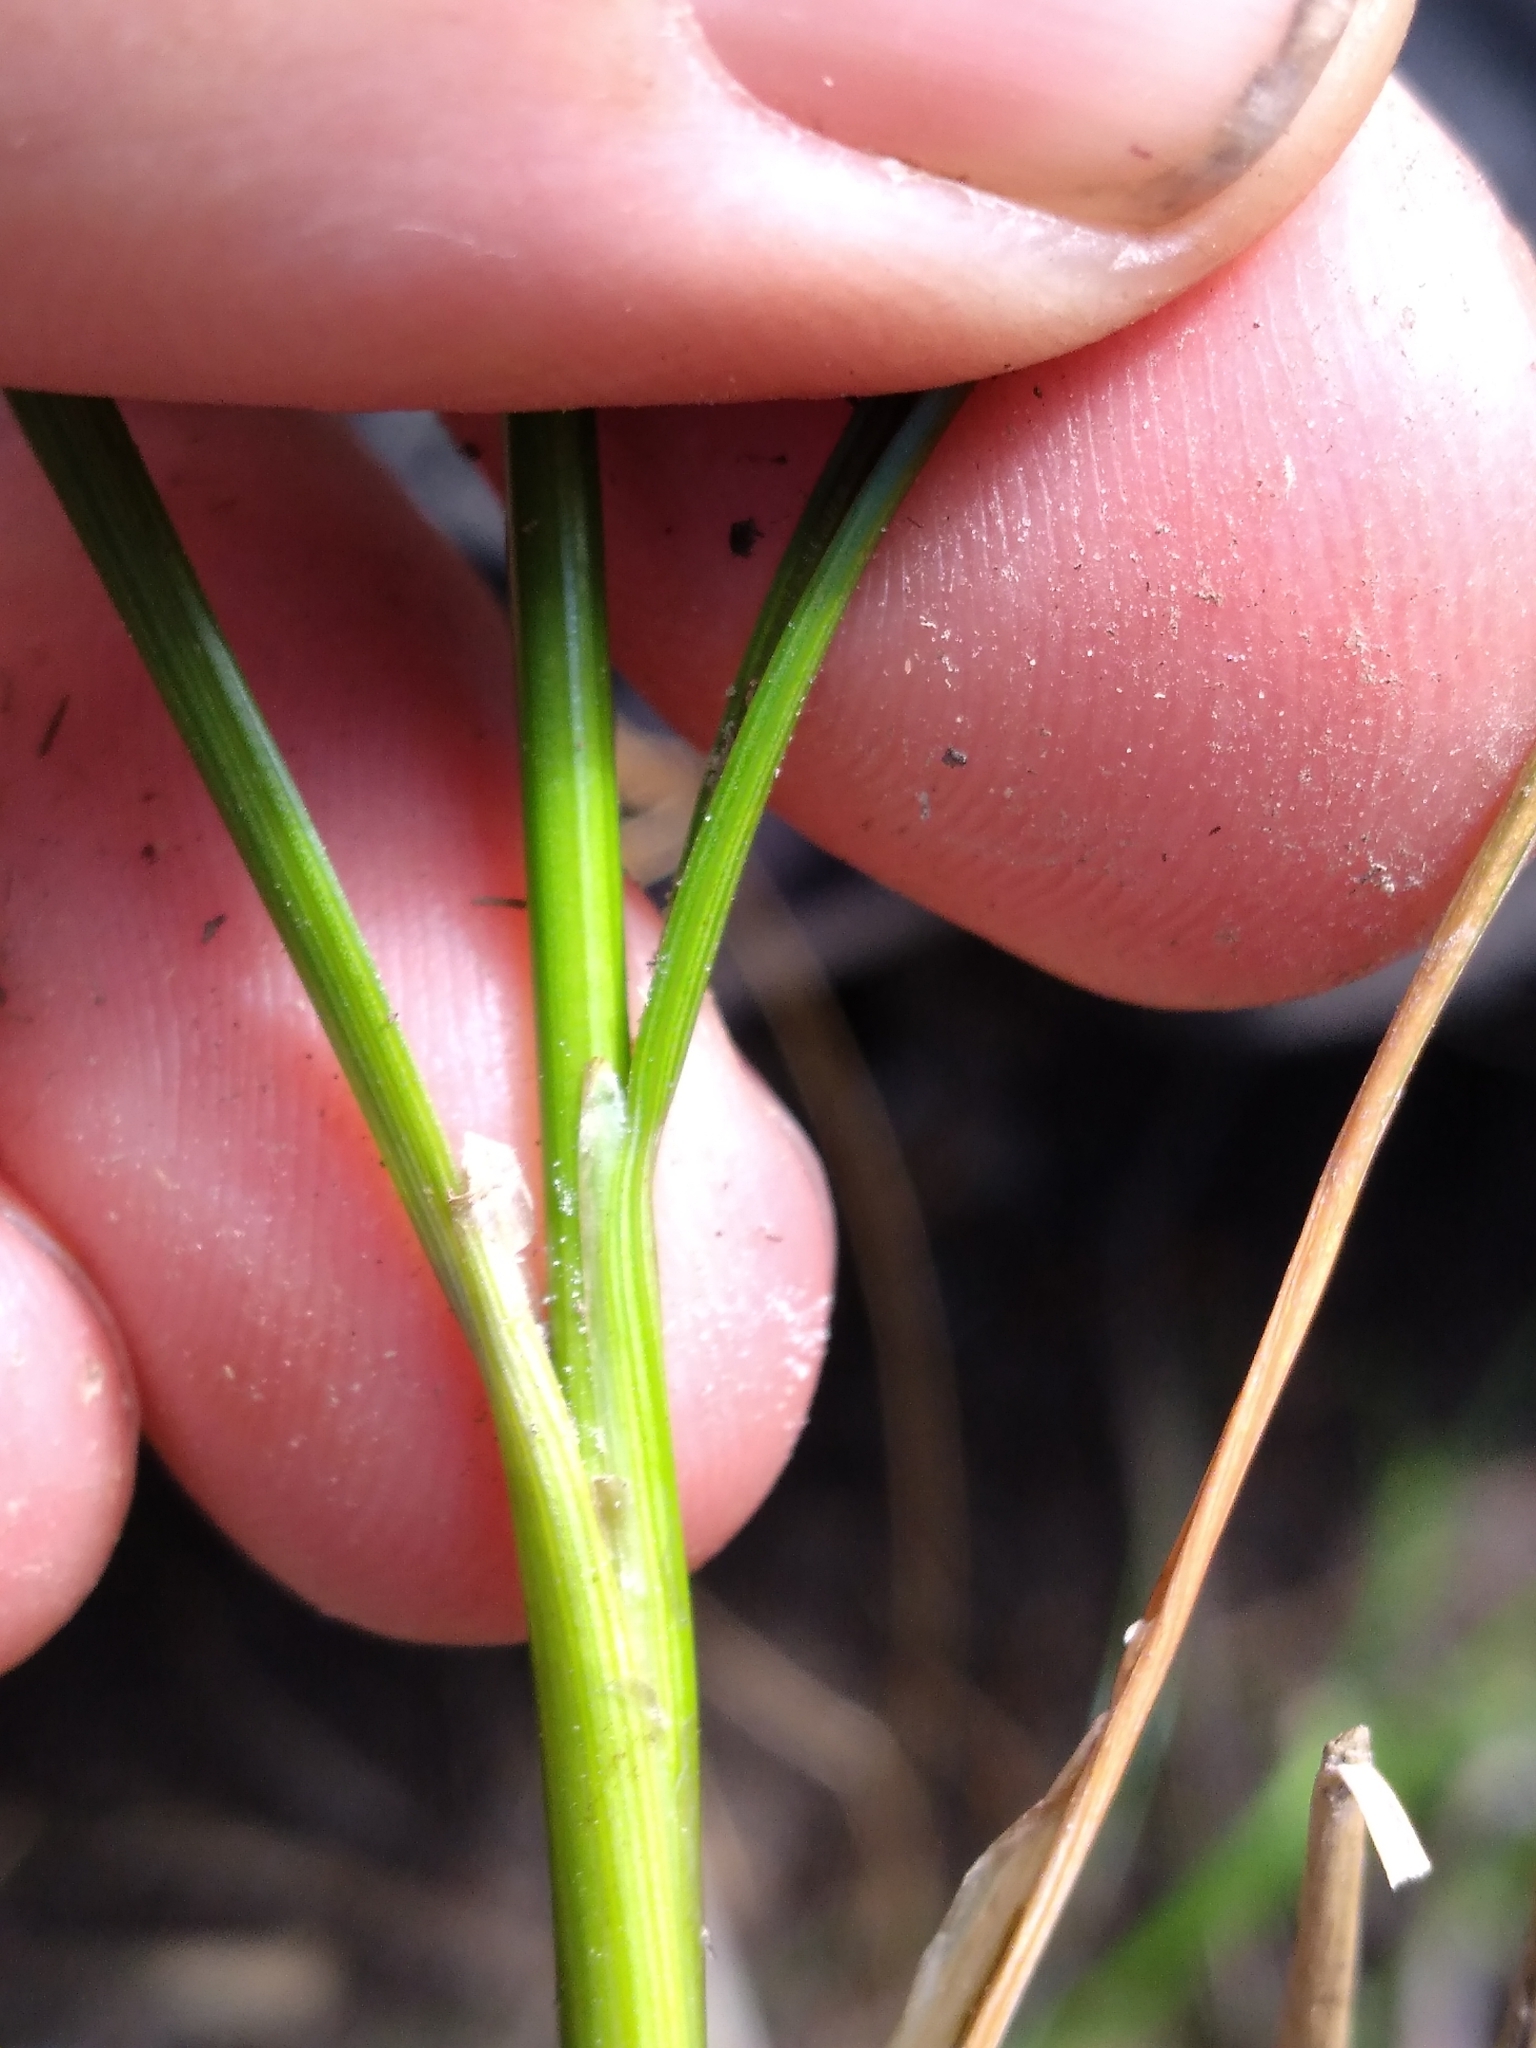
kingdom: Plantae
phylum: Tracheophyta
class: Liliopsida
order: Poales
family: Juncaceae
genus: Juncus
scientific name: Juncus tenuis
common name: Slender rush
